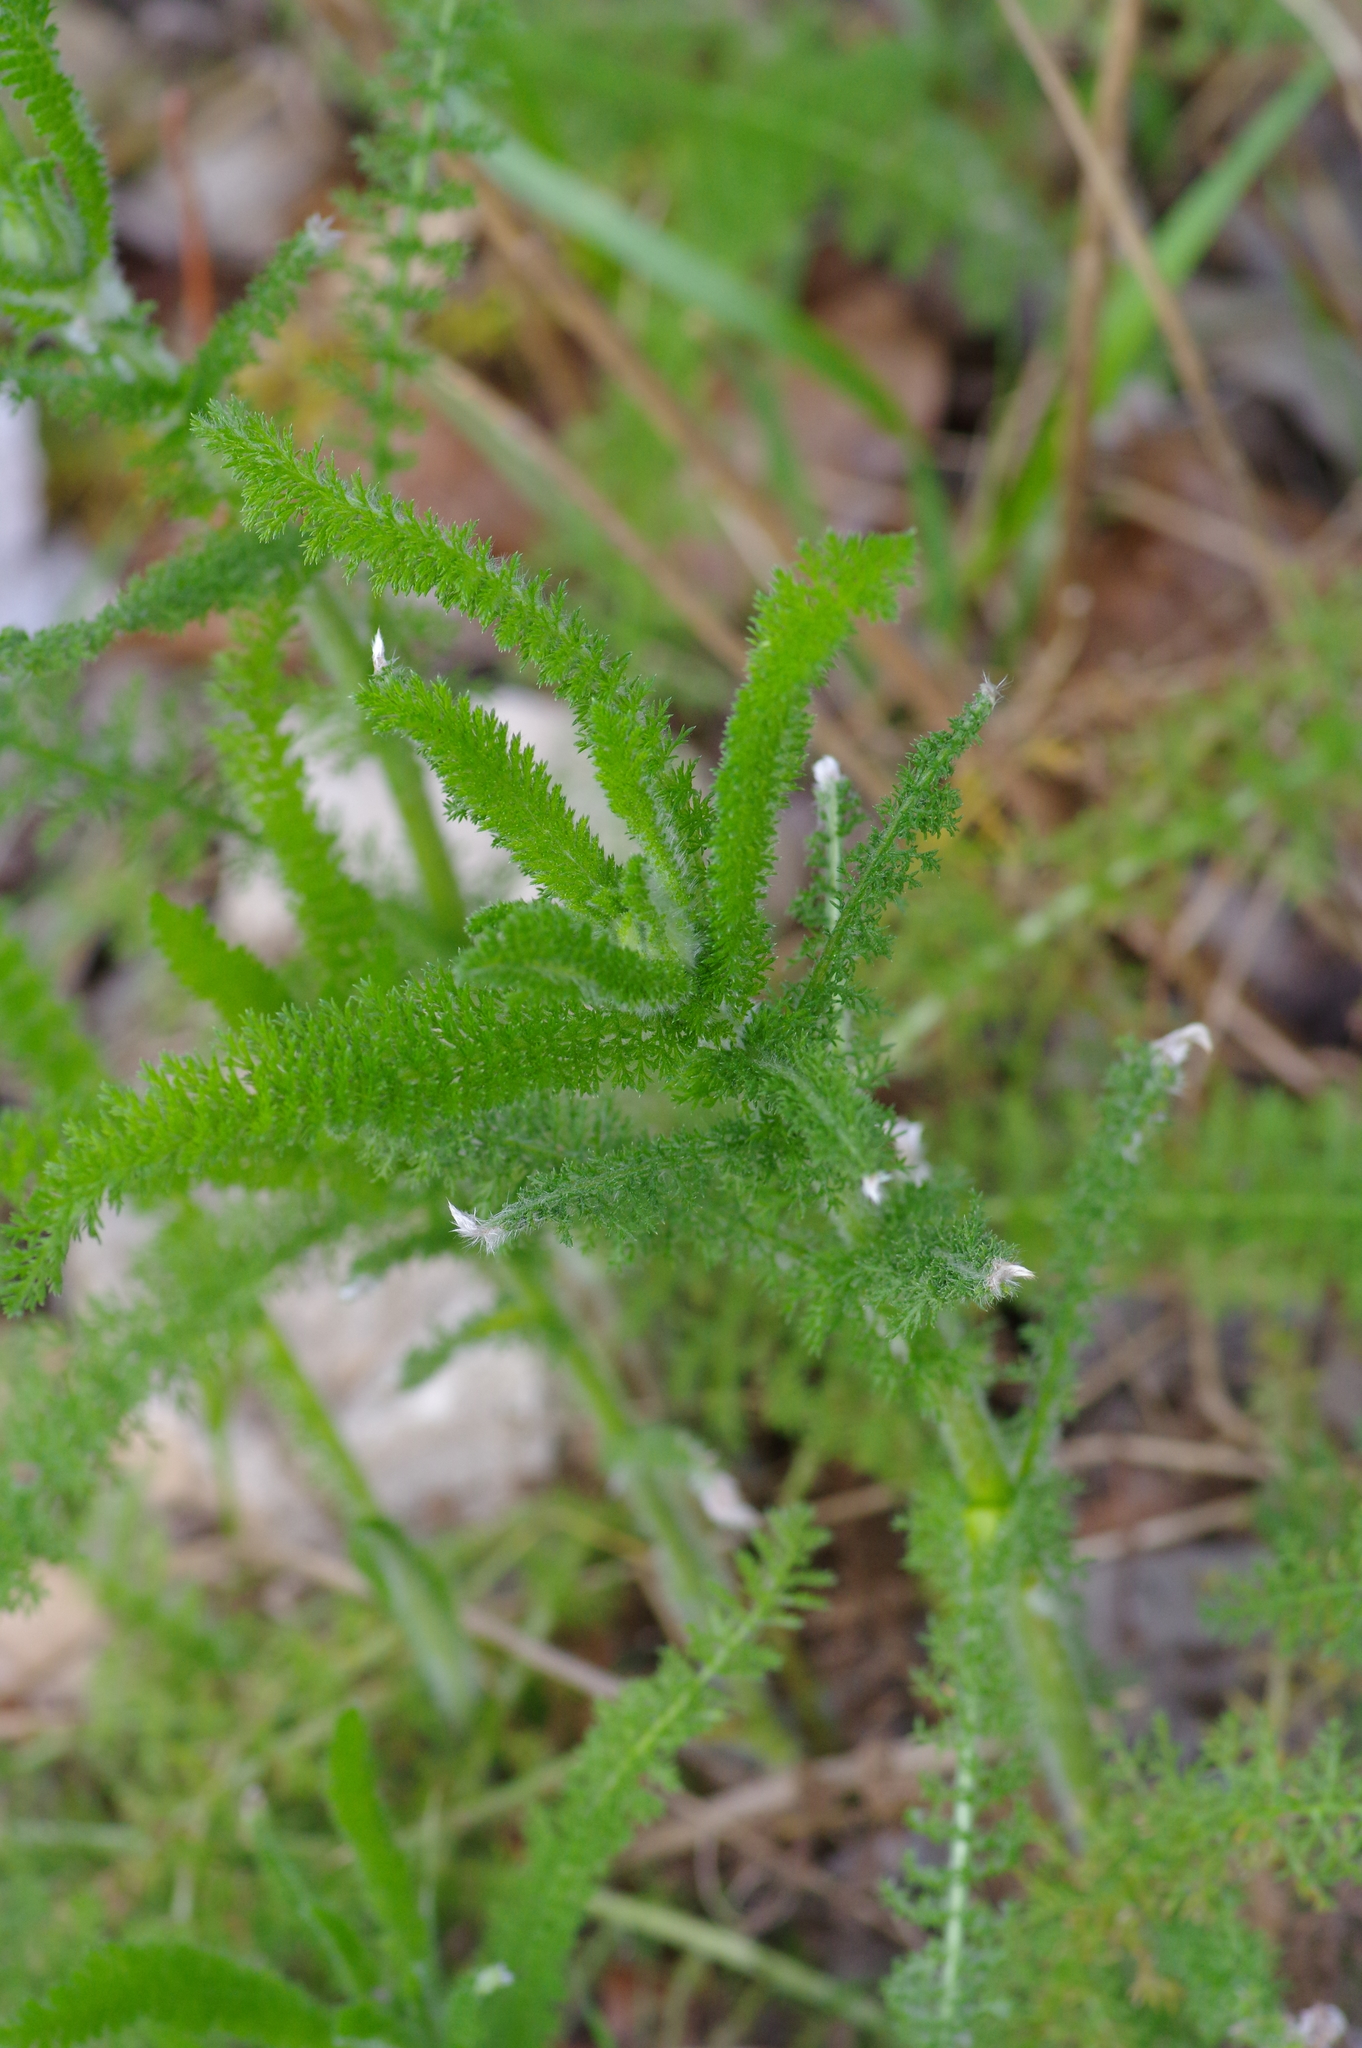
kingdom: Plantae
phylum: Tracheophyta
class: Magnoliopsida
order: Asterales
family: Asteraceae
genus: Achillea
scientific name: Achillea millefolium
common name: Yarrow
